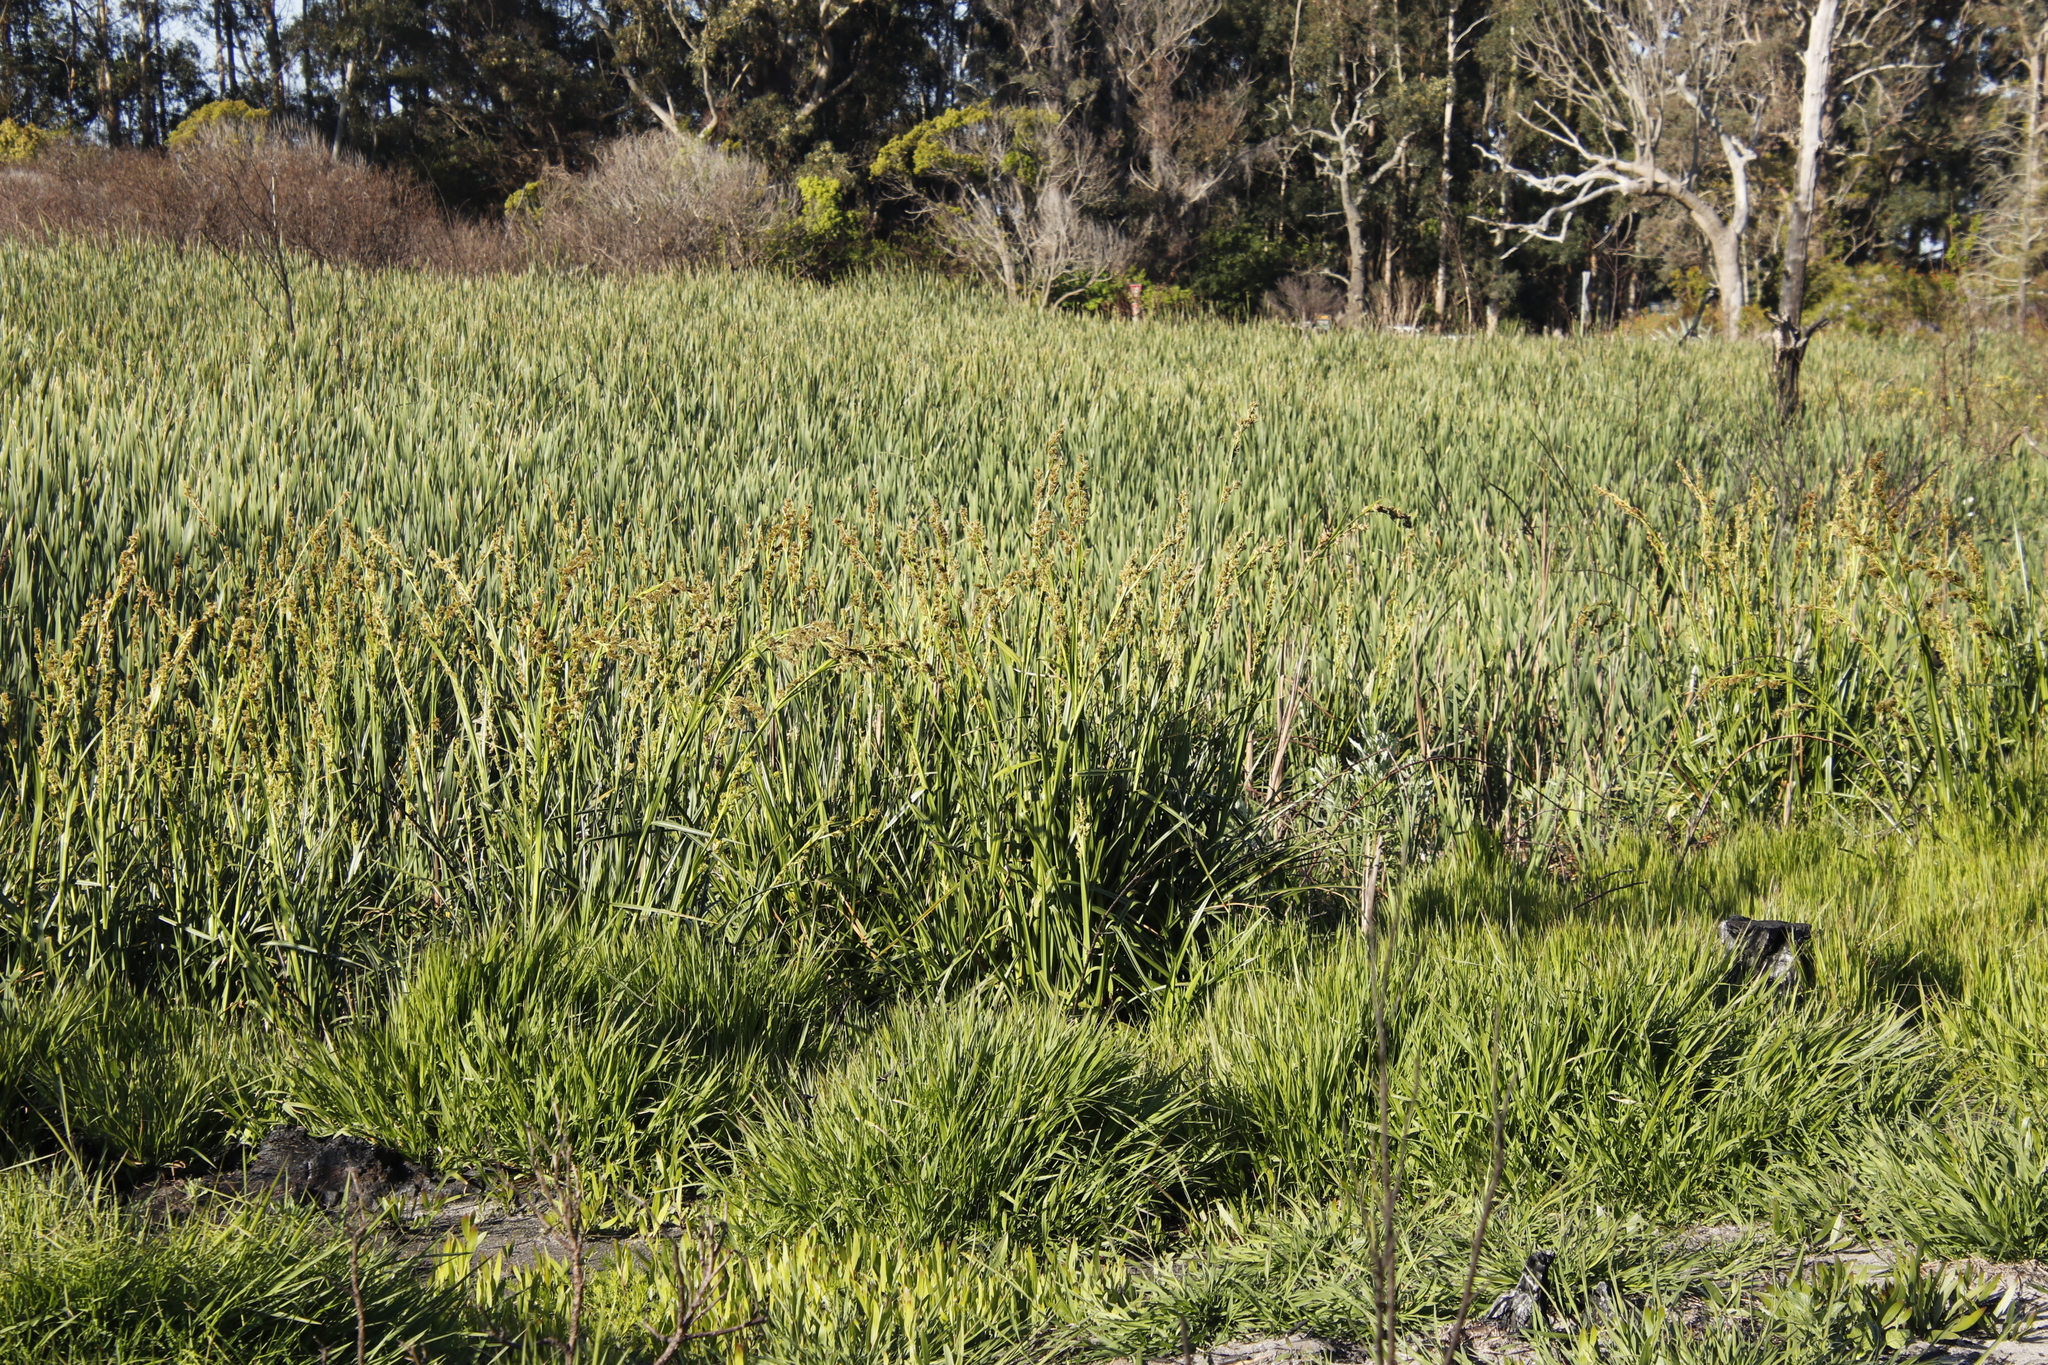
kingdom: Plantae
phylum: Tracheophyta
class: Liliopsida
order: Poales
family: Cyperaceae
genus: Carpha
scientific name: Carpha glomerata
